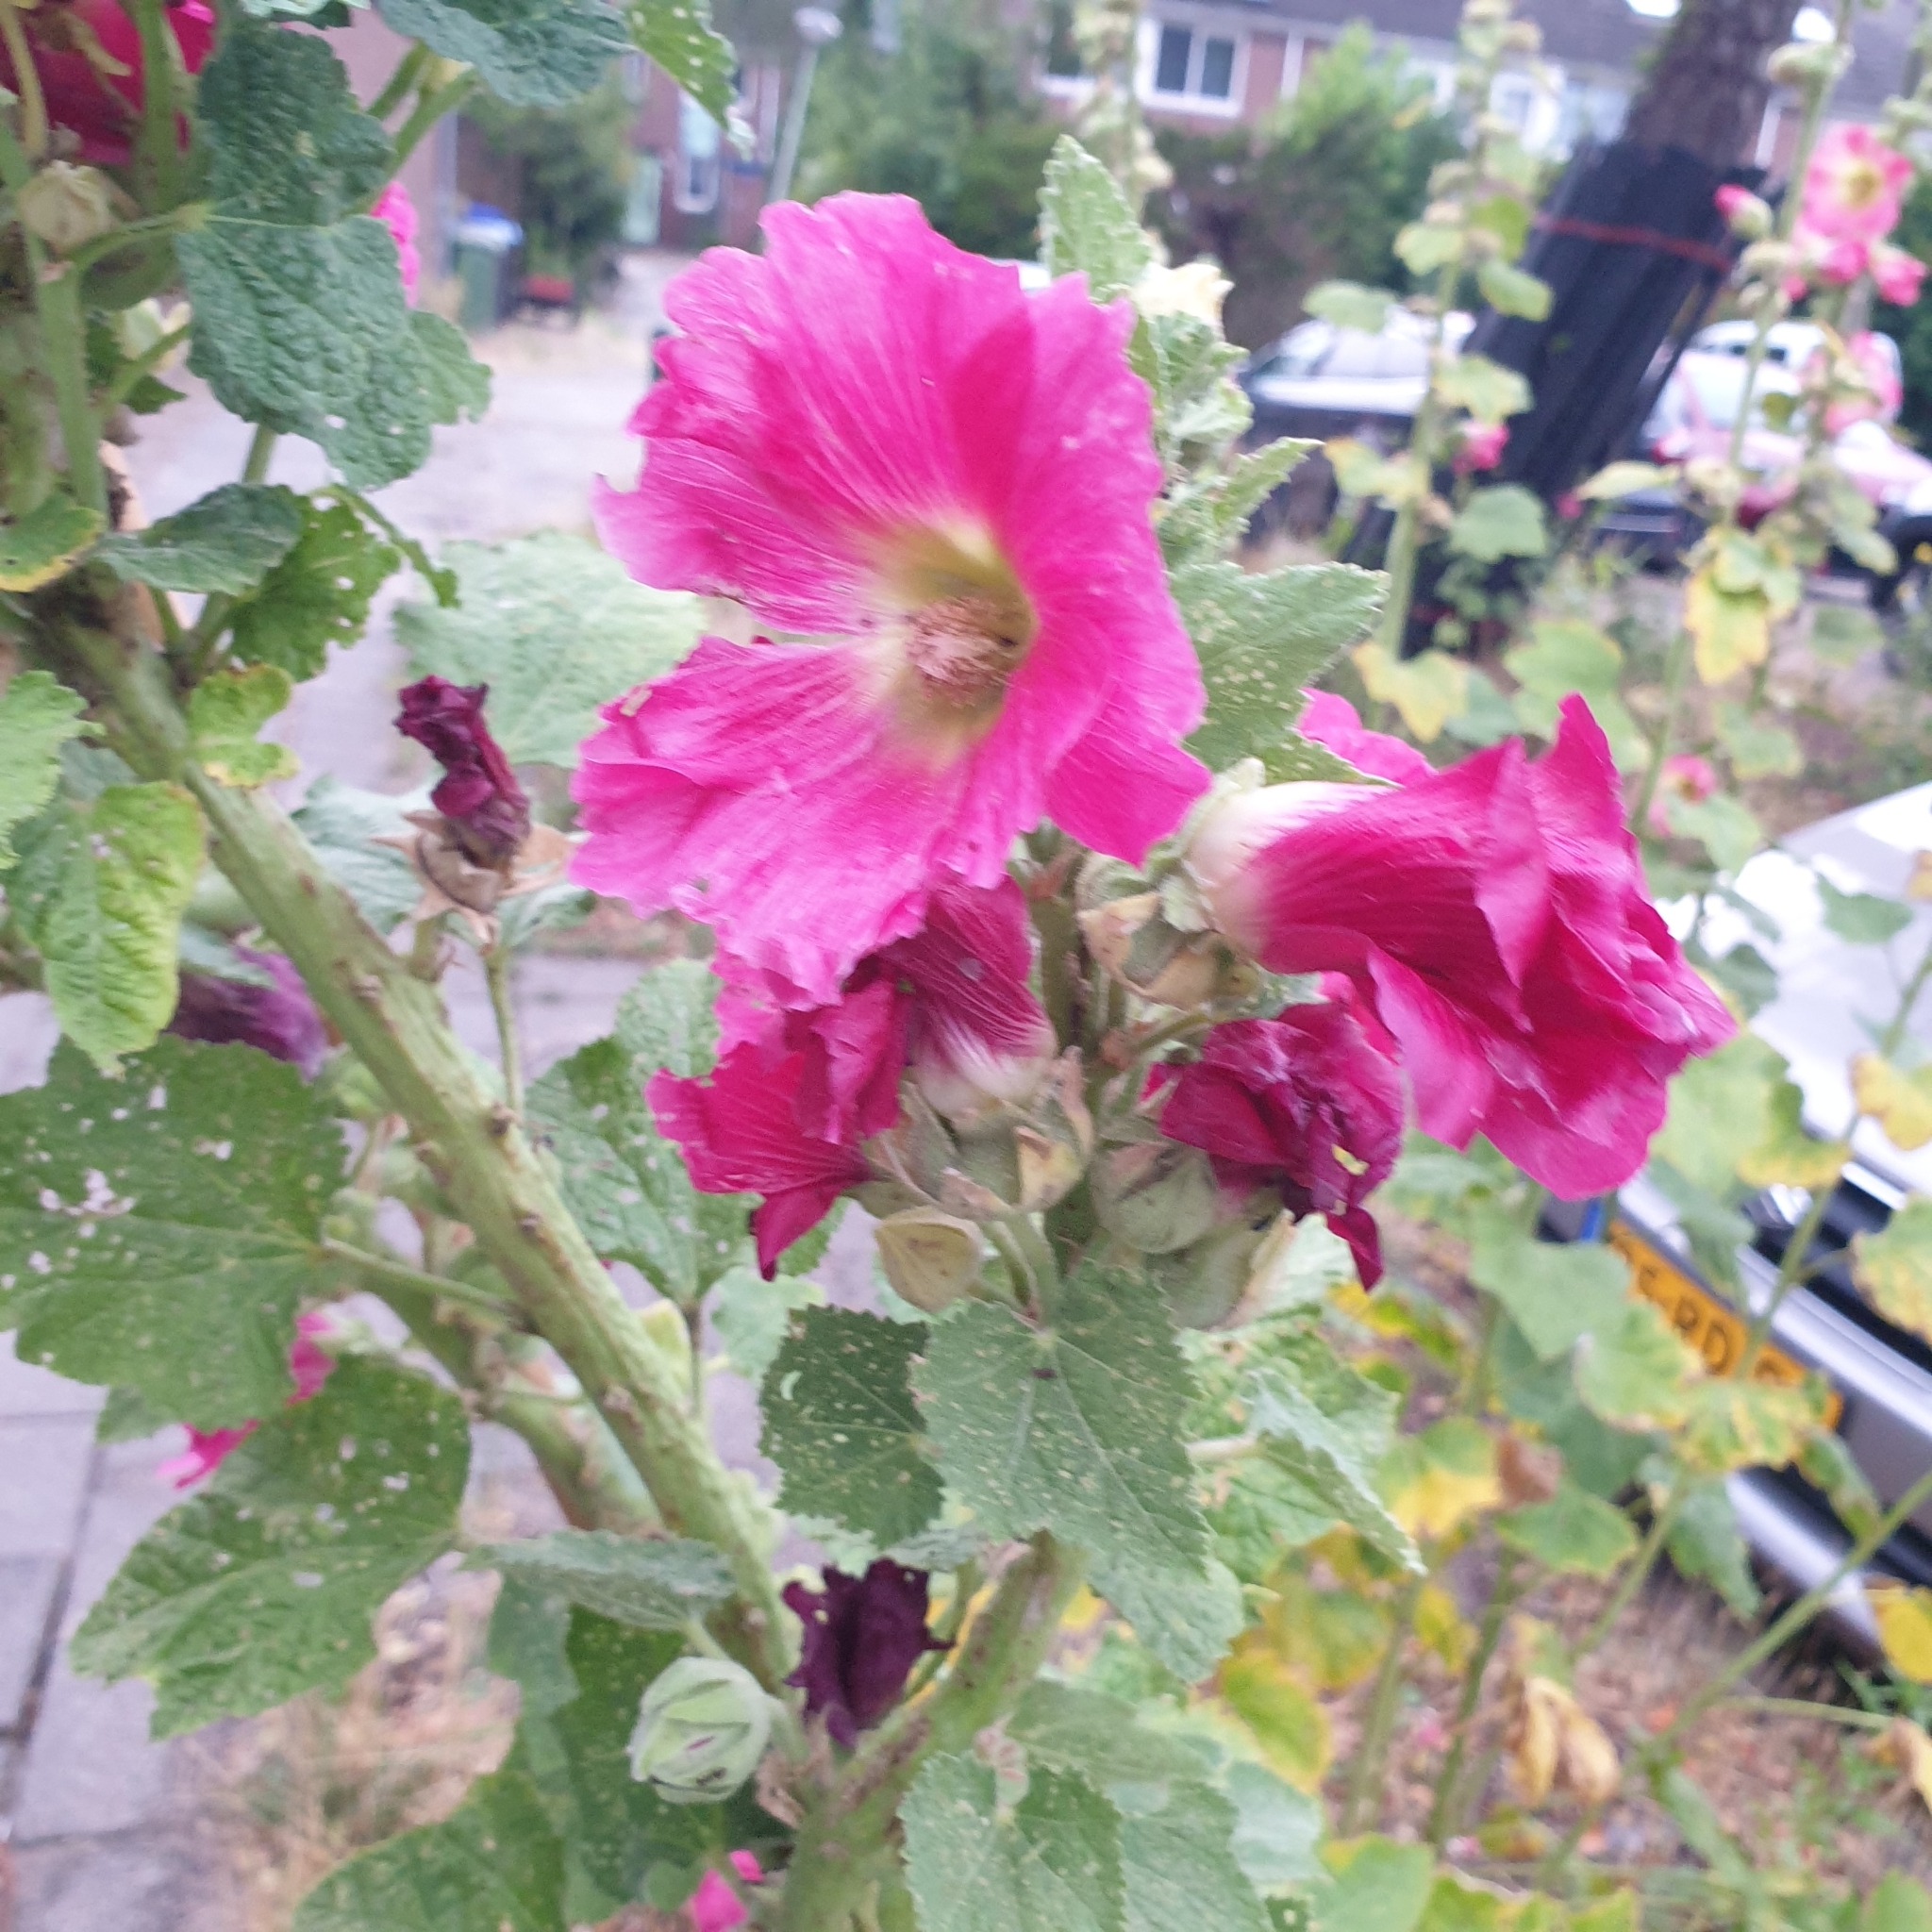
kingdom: Plantae
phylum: Tracheophyta
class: Magnoliopsida
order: Malvales
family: Malvaceae
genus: Alcea
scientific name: Alcea rosea
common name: Hollyhock
